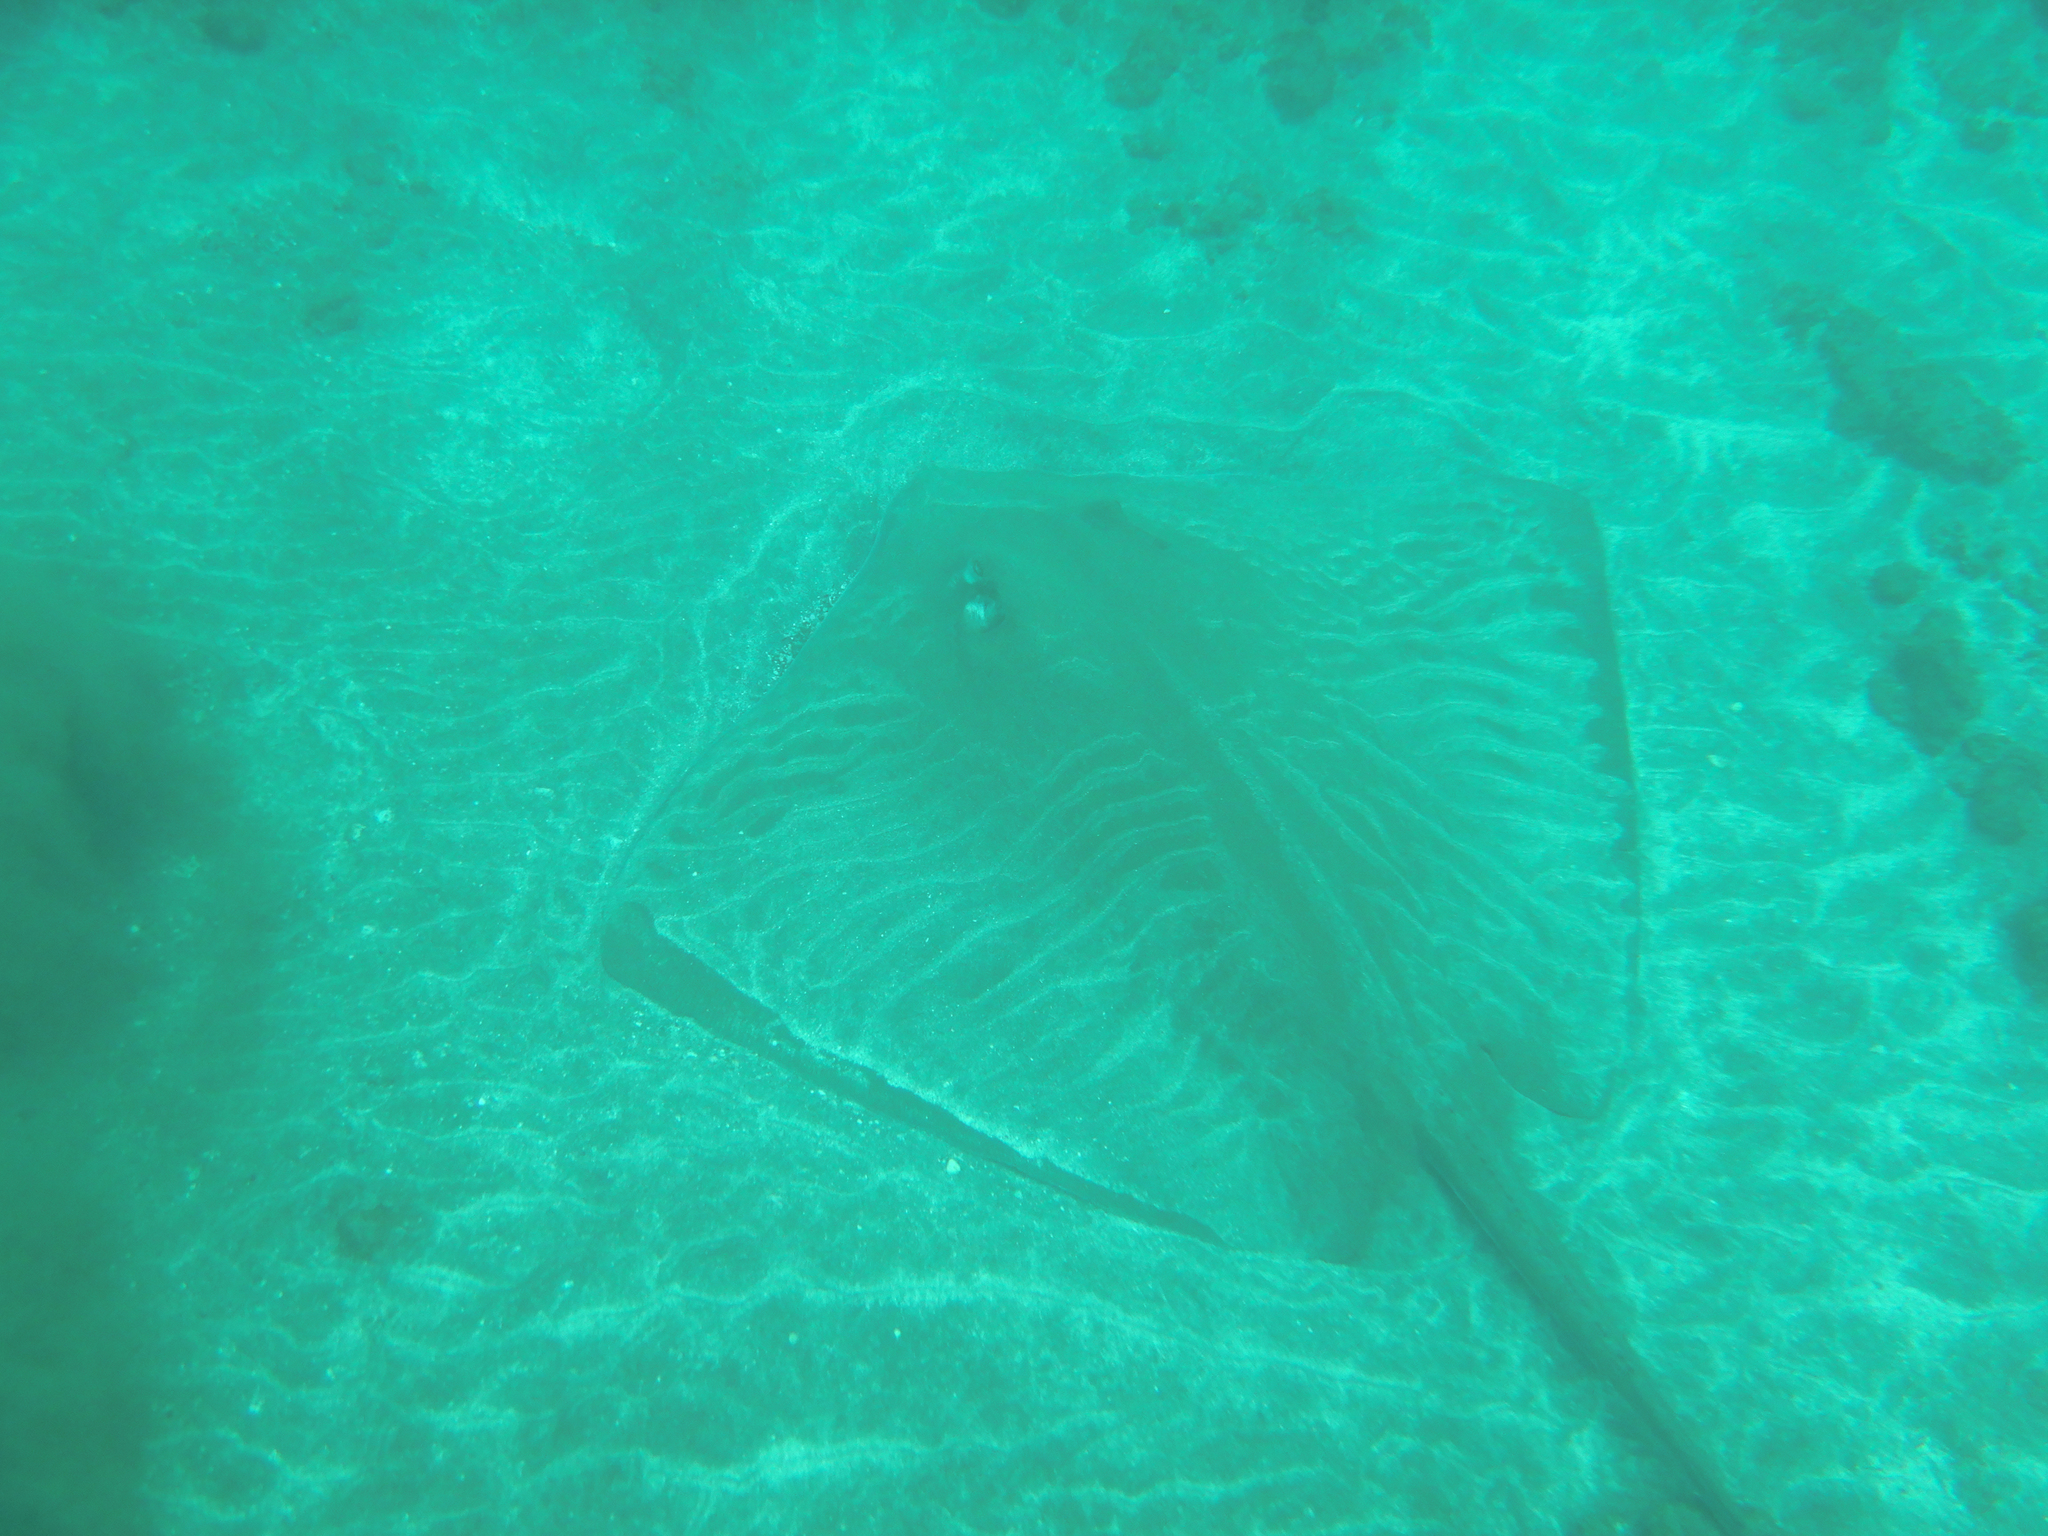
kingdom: Animalia
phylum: Chordata
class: Elasmobranchii
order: Myliobatiformes
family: Dasyatidae
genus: Hypanus
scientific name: Hypanus longus
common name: Longtail stingray
